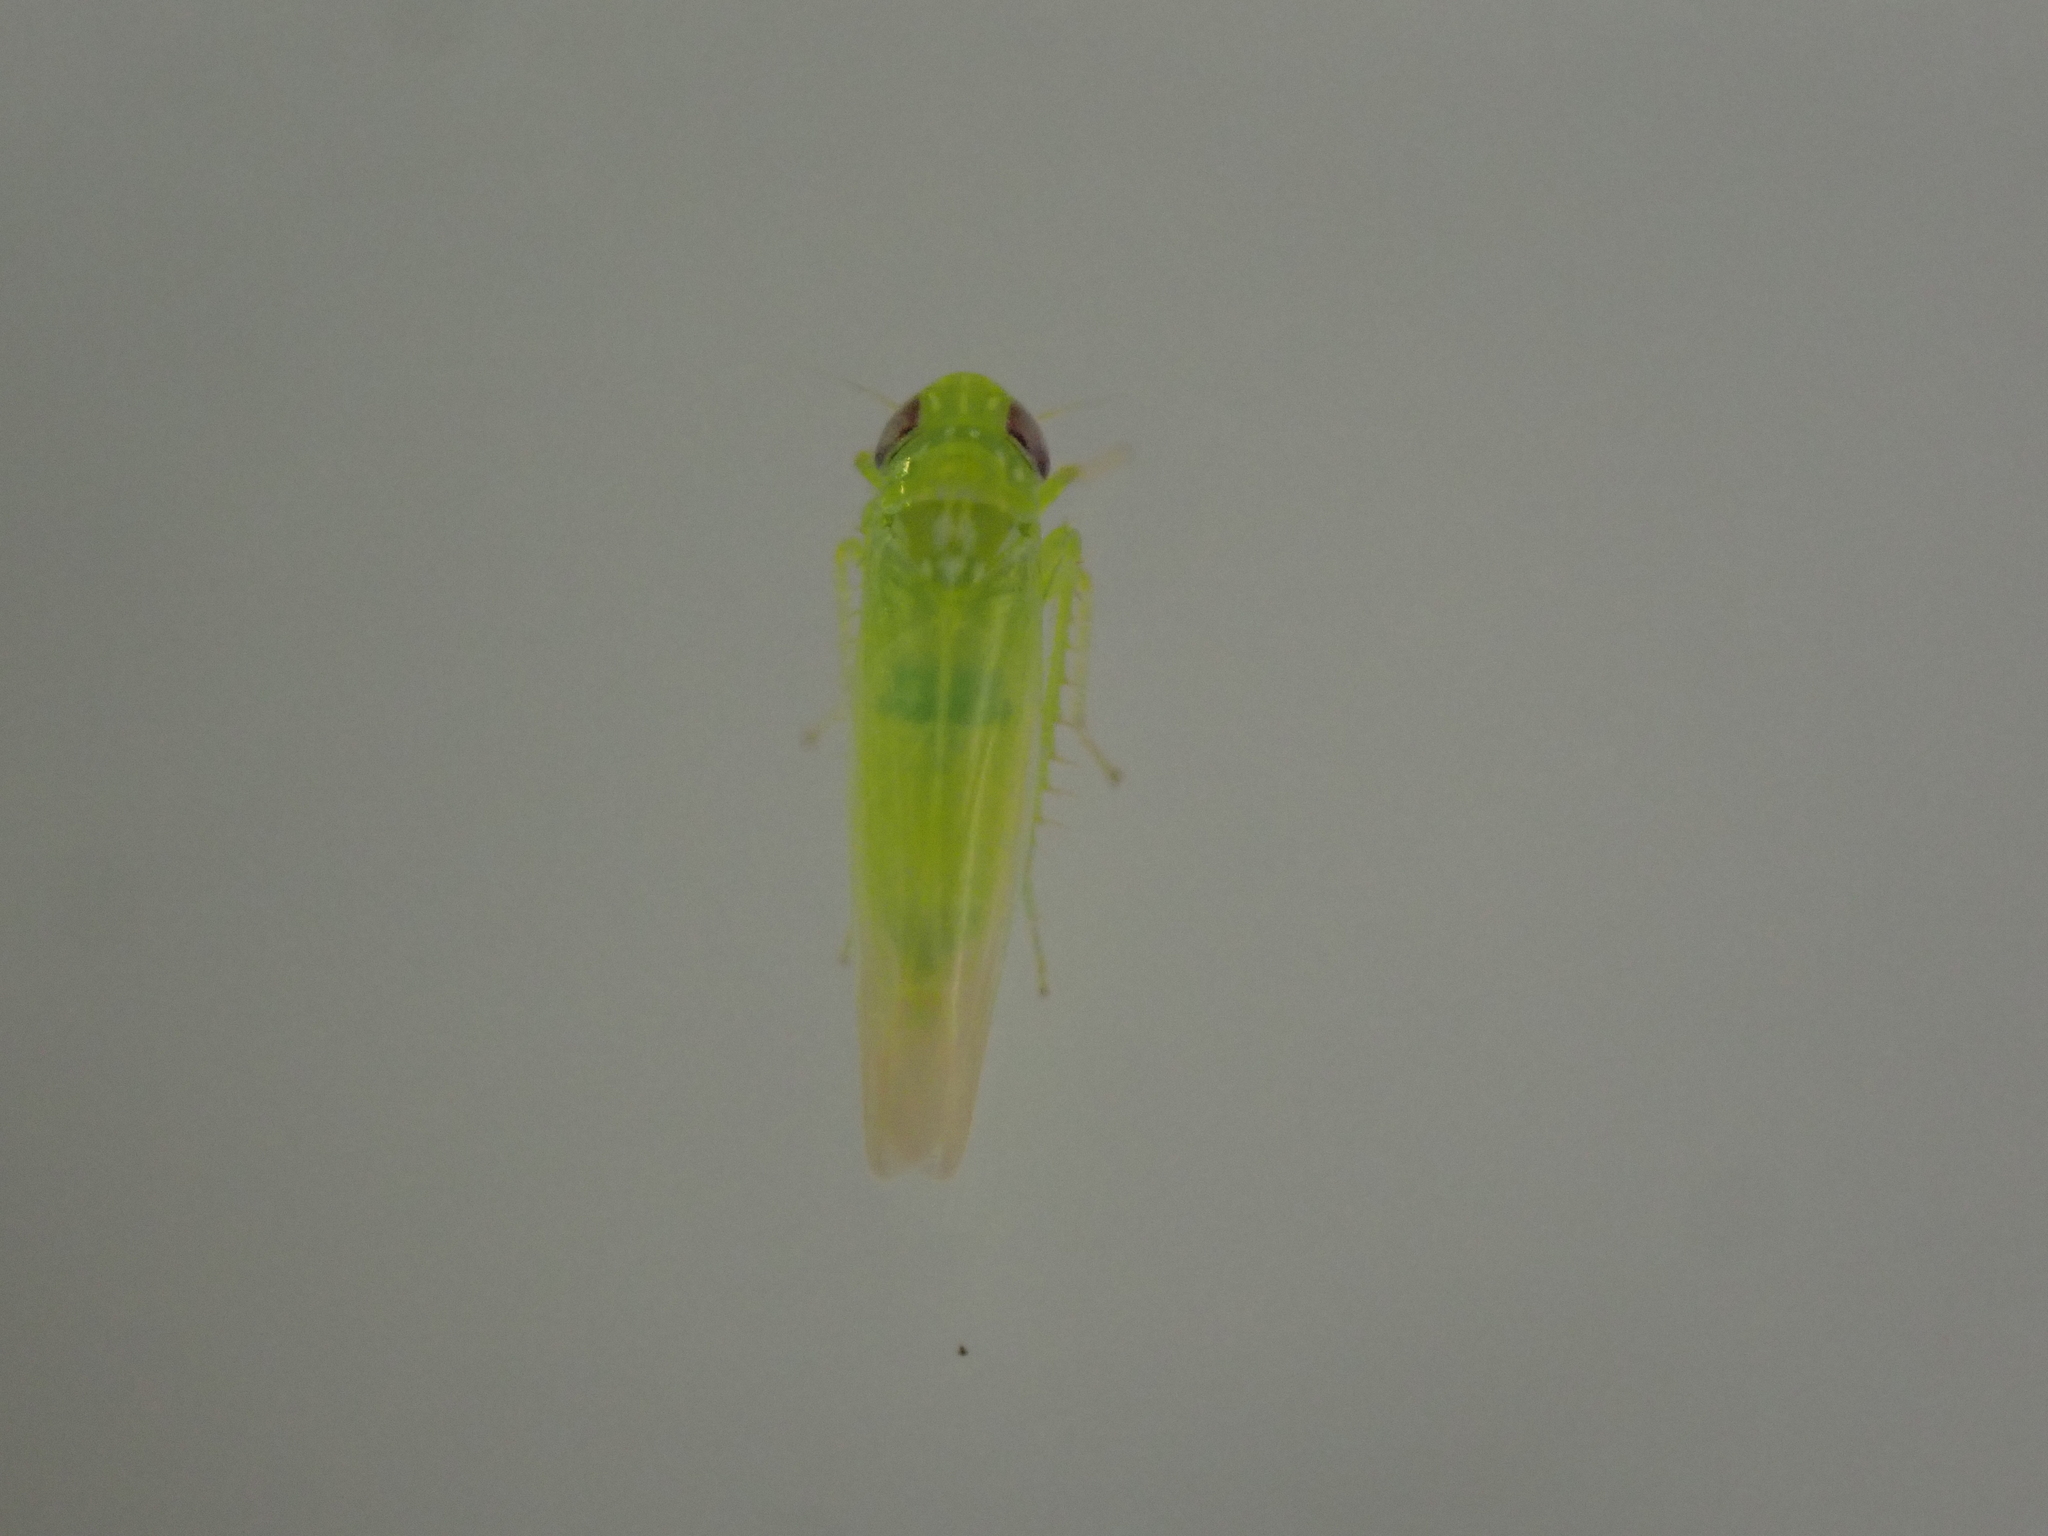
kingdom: Animalia
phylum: Arthropoda
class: Insecta
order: Hemiptera
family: Cicadellidae
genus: Empoasca
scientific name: Empoasca fabae
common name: Potato leafhopper
